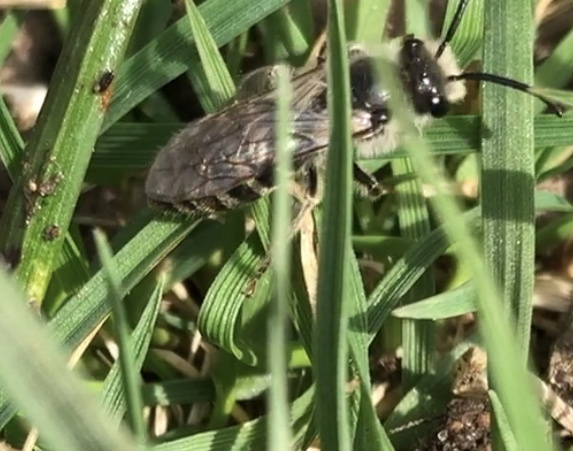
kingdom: Animalia
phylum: Arthropoda
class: Insecta
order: Hymenoptera
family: Colletidae
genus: Colletes
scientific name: Colletes inaequalis
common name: Unequal cellophane bee
